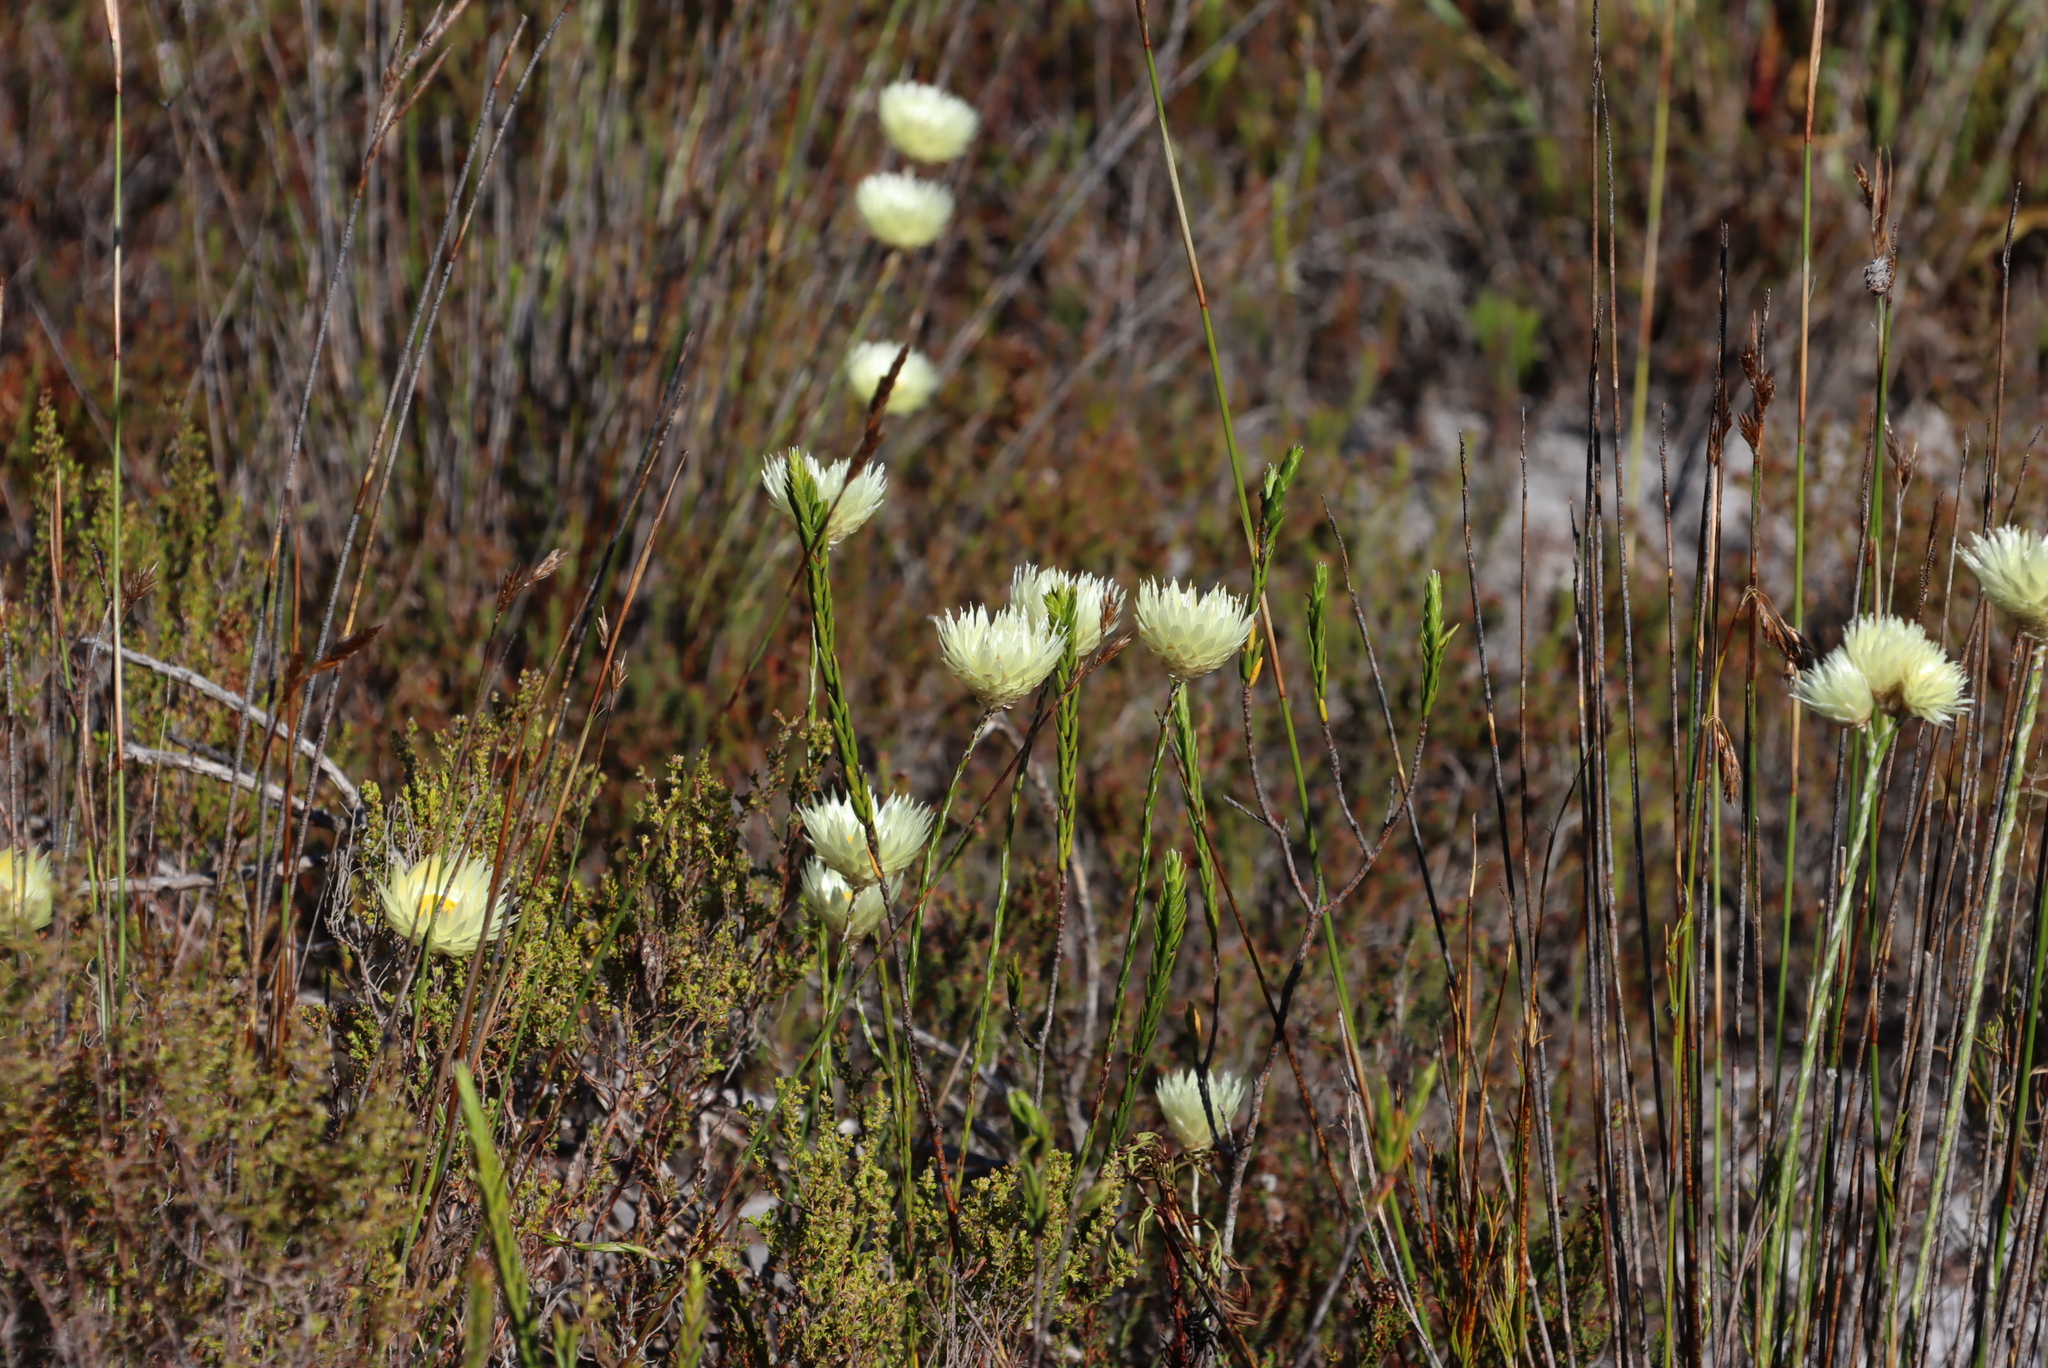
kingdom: Plantae
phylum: Tracheophyta
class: Magnoliopsida
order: Asterales
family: Asteraceae
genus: Edmondia
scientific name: Edmondia sesamoides
